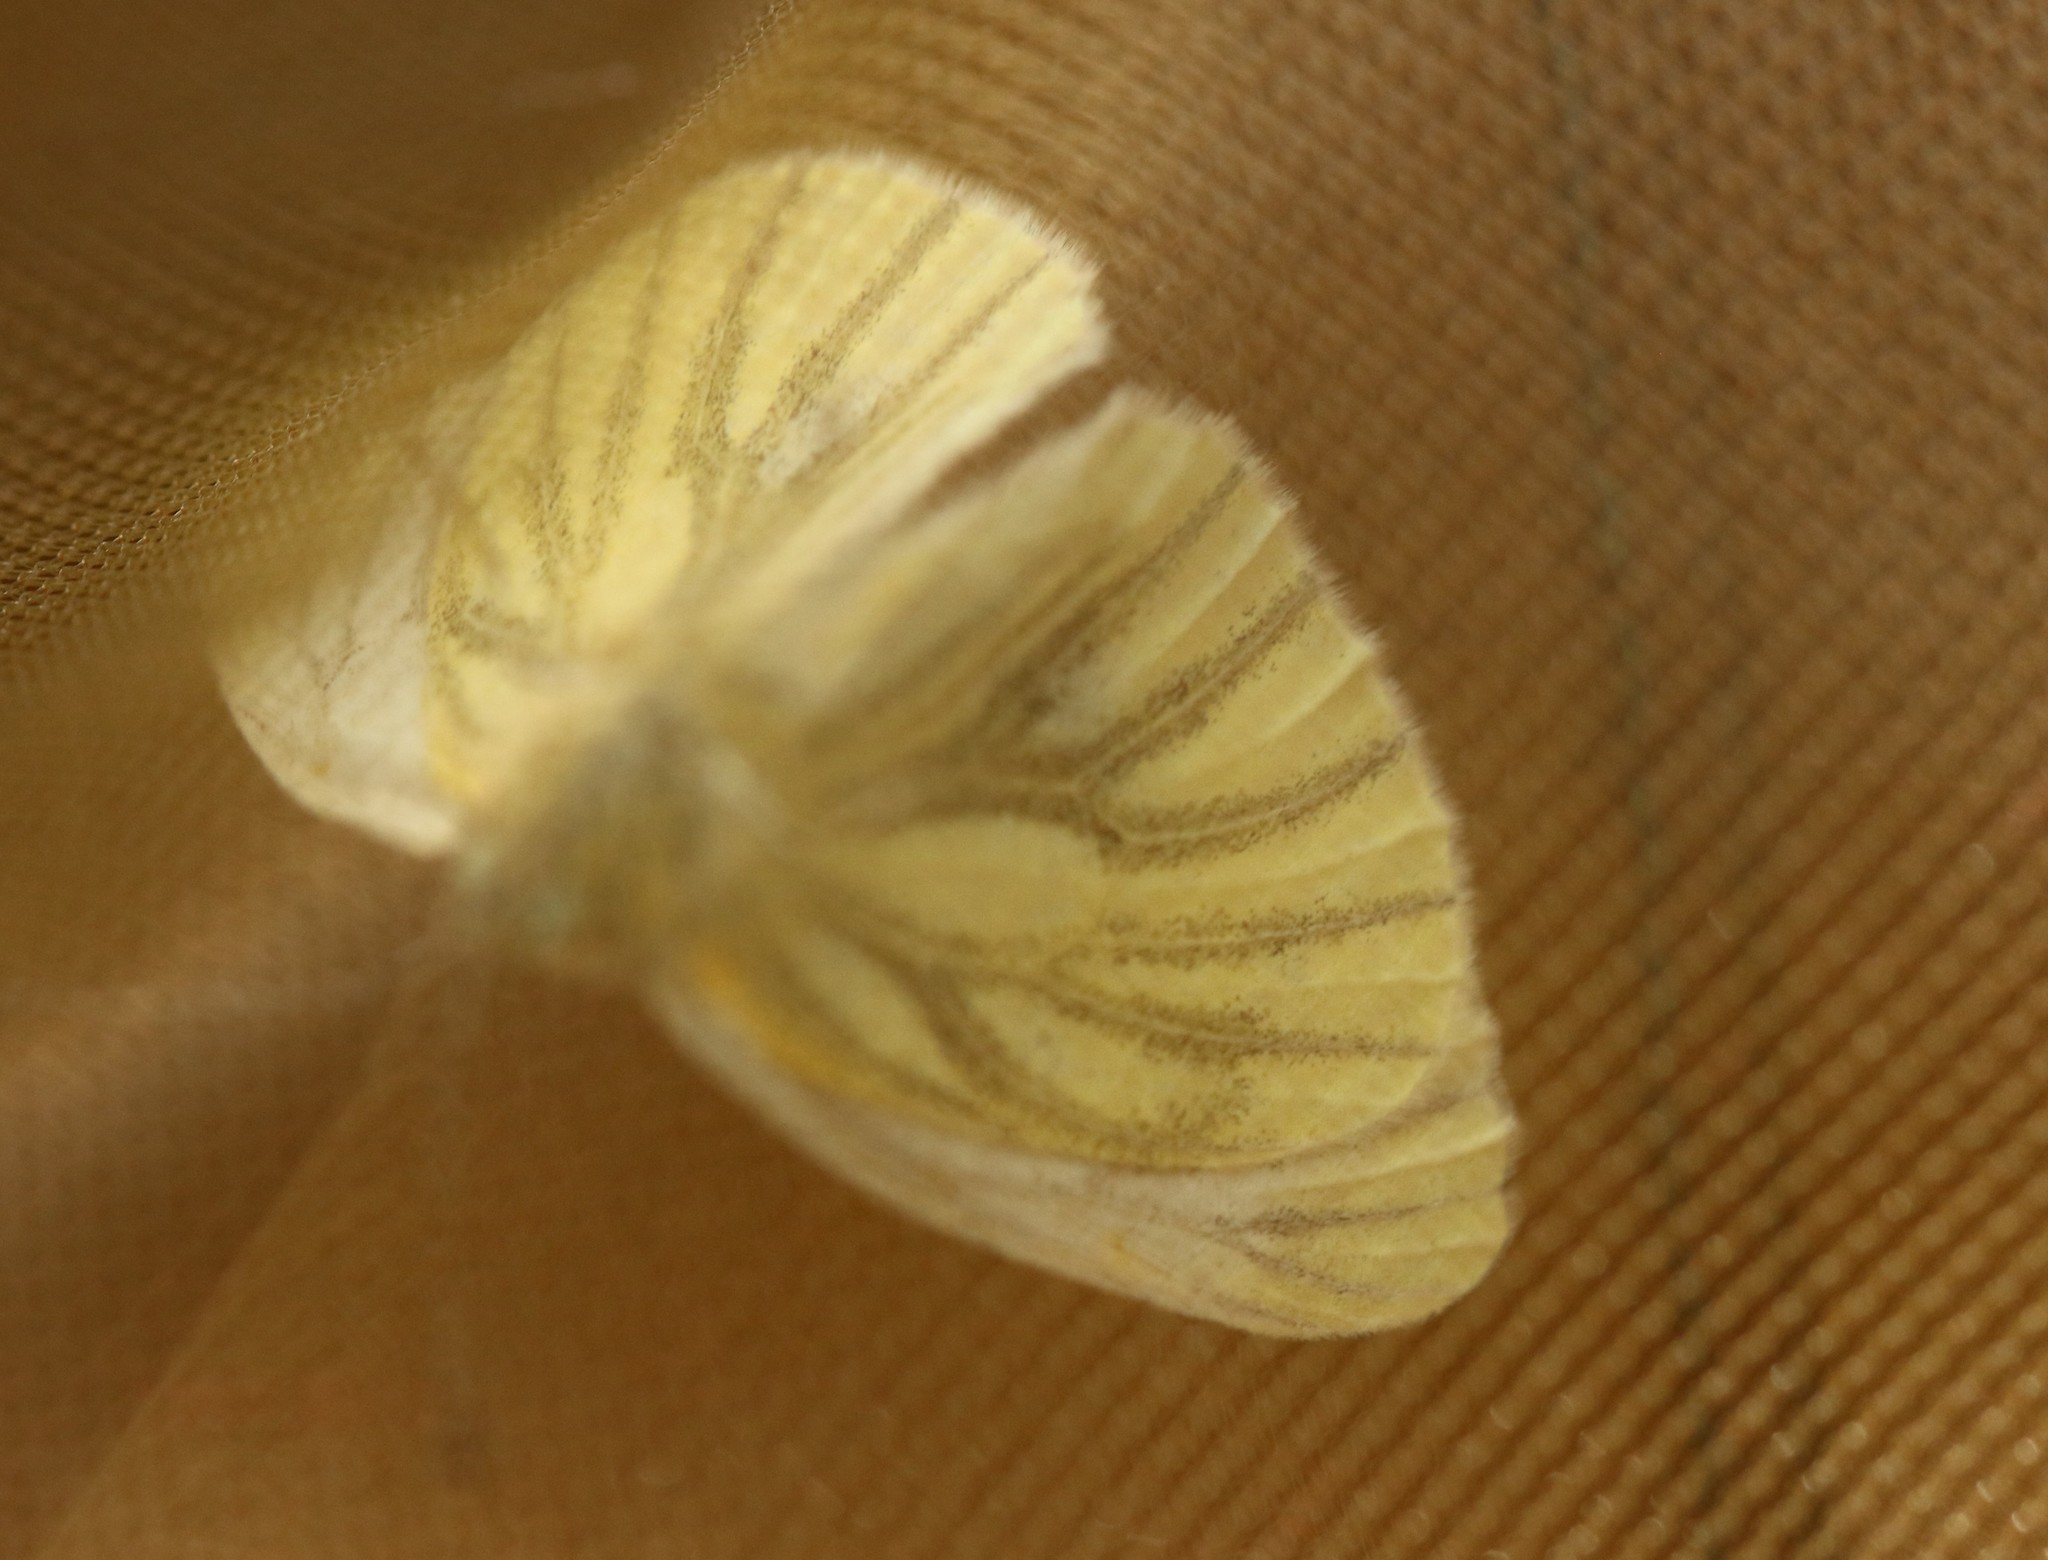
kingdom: Animalia
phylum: Arthropoda
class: Insecta
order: Lepidoptera
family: Pieridae
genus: Pieris
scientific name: Pieris napi
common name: Green-veined white
